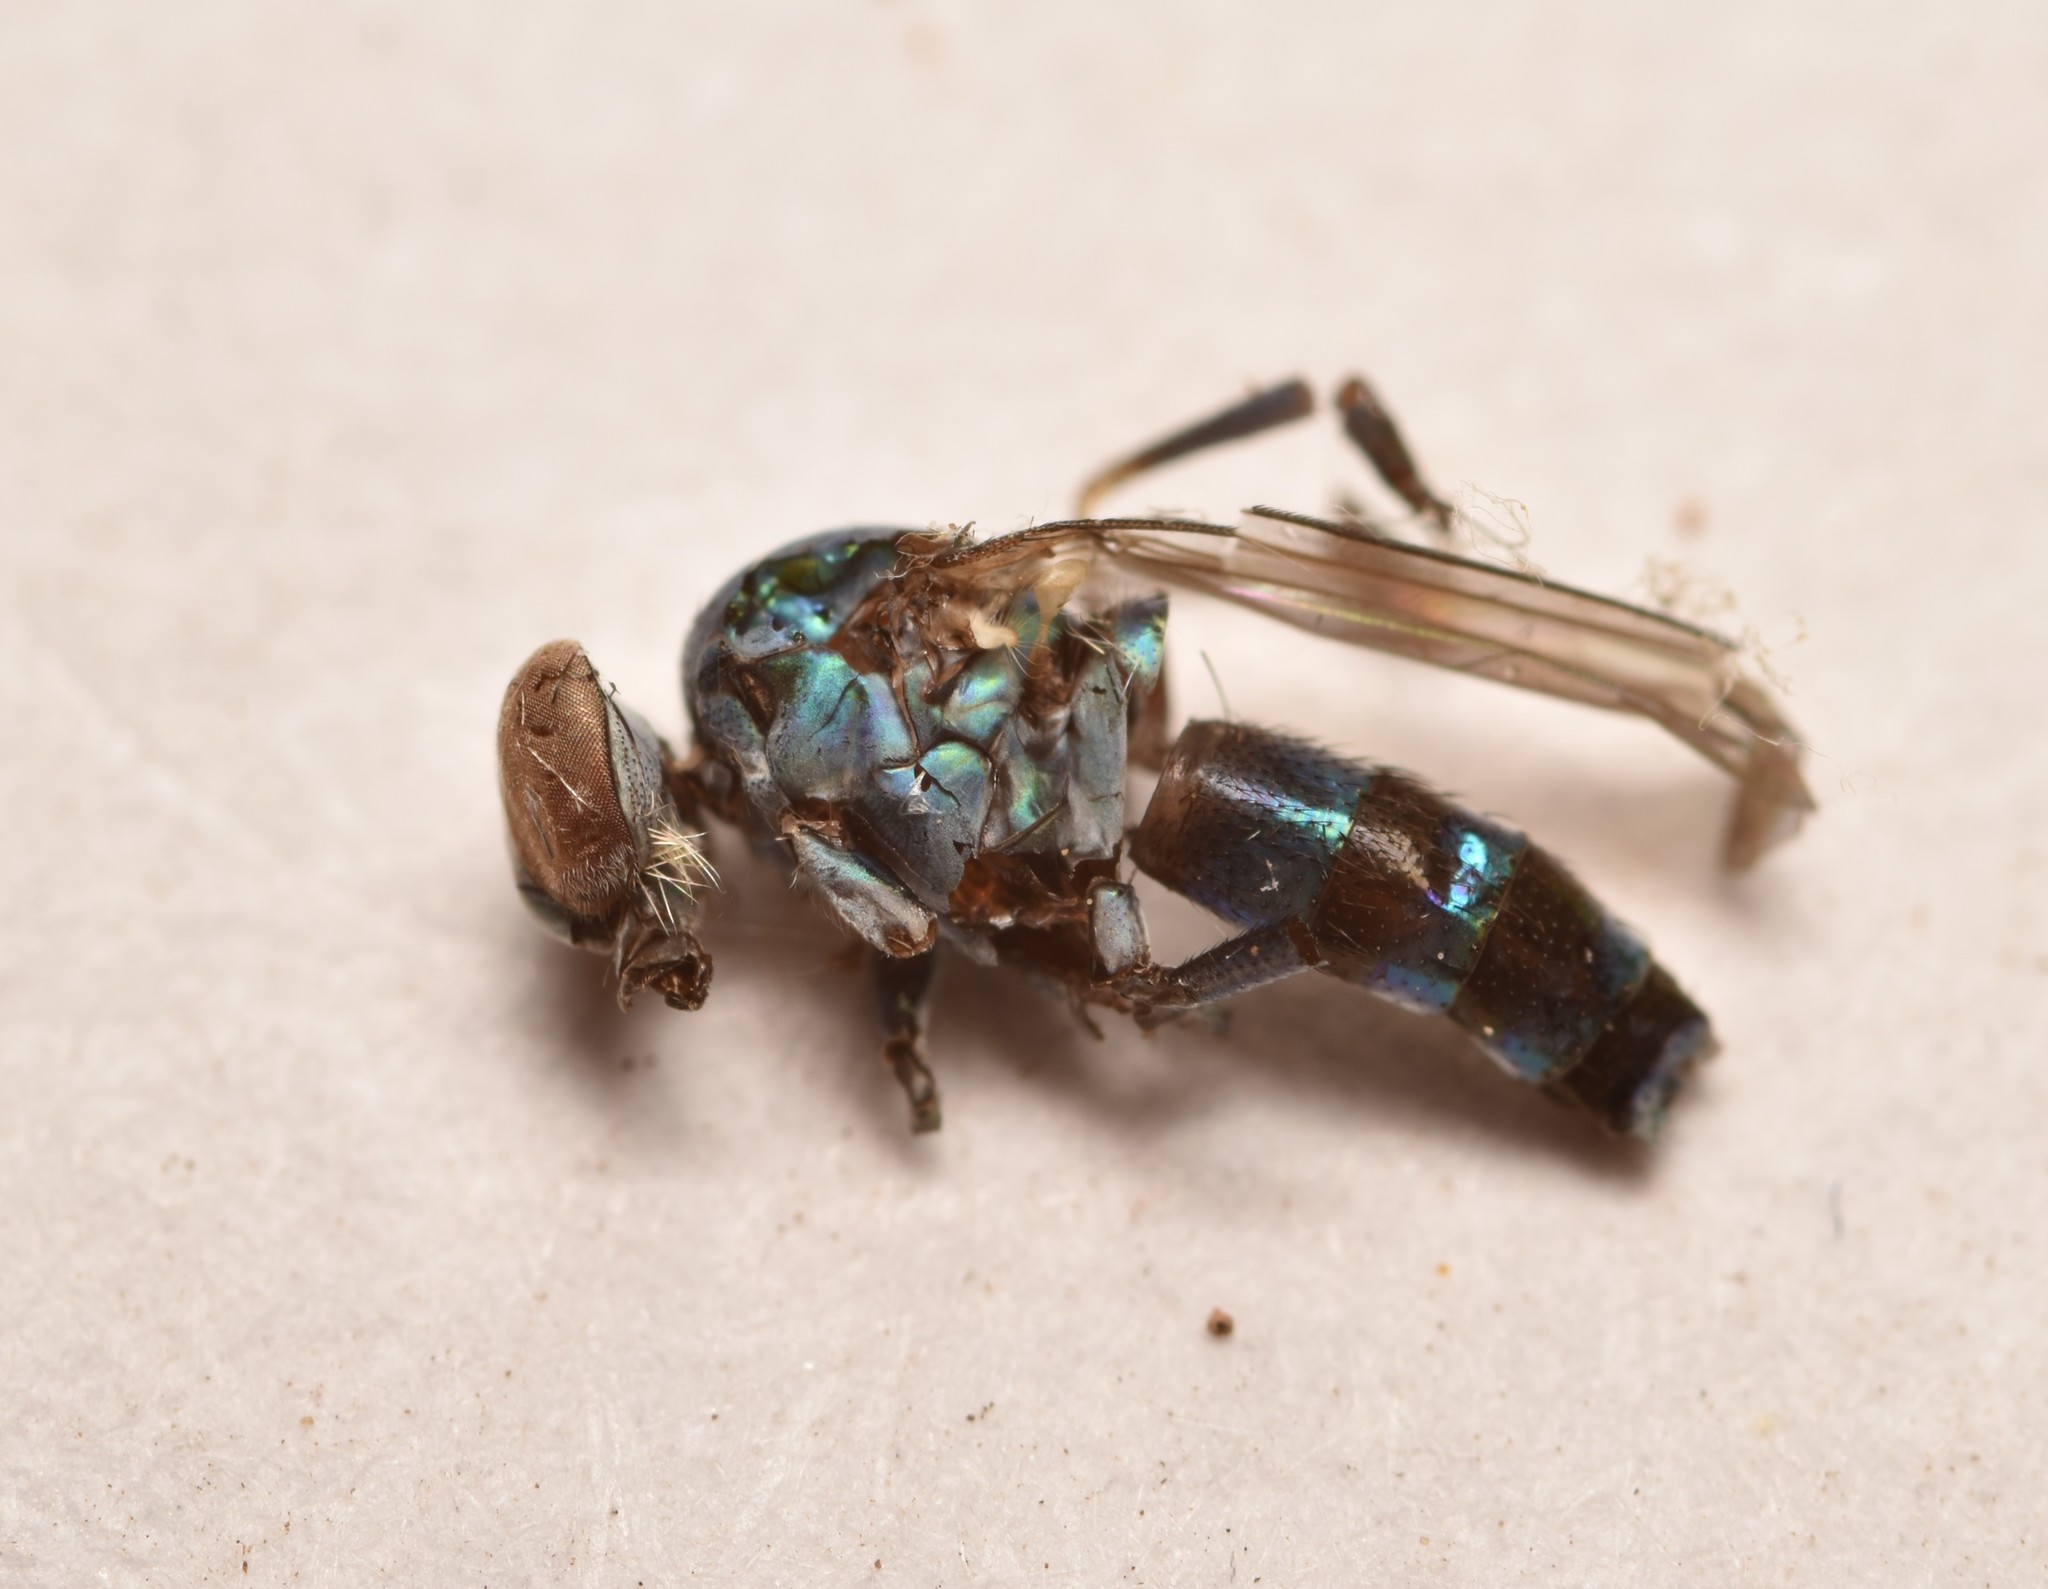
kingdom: Animalia
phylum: Arthropoda
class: Insecta
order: Diptera
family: Dolichopodidae
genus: Plagioneurus
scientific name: Plagioneurus univittatus
